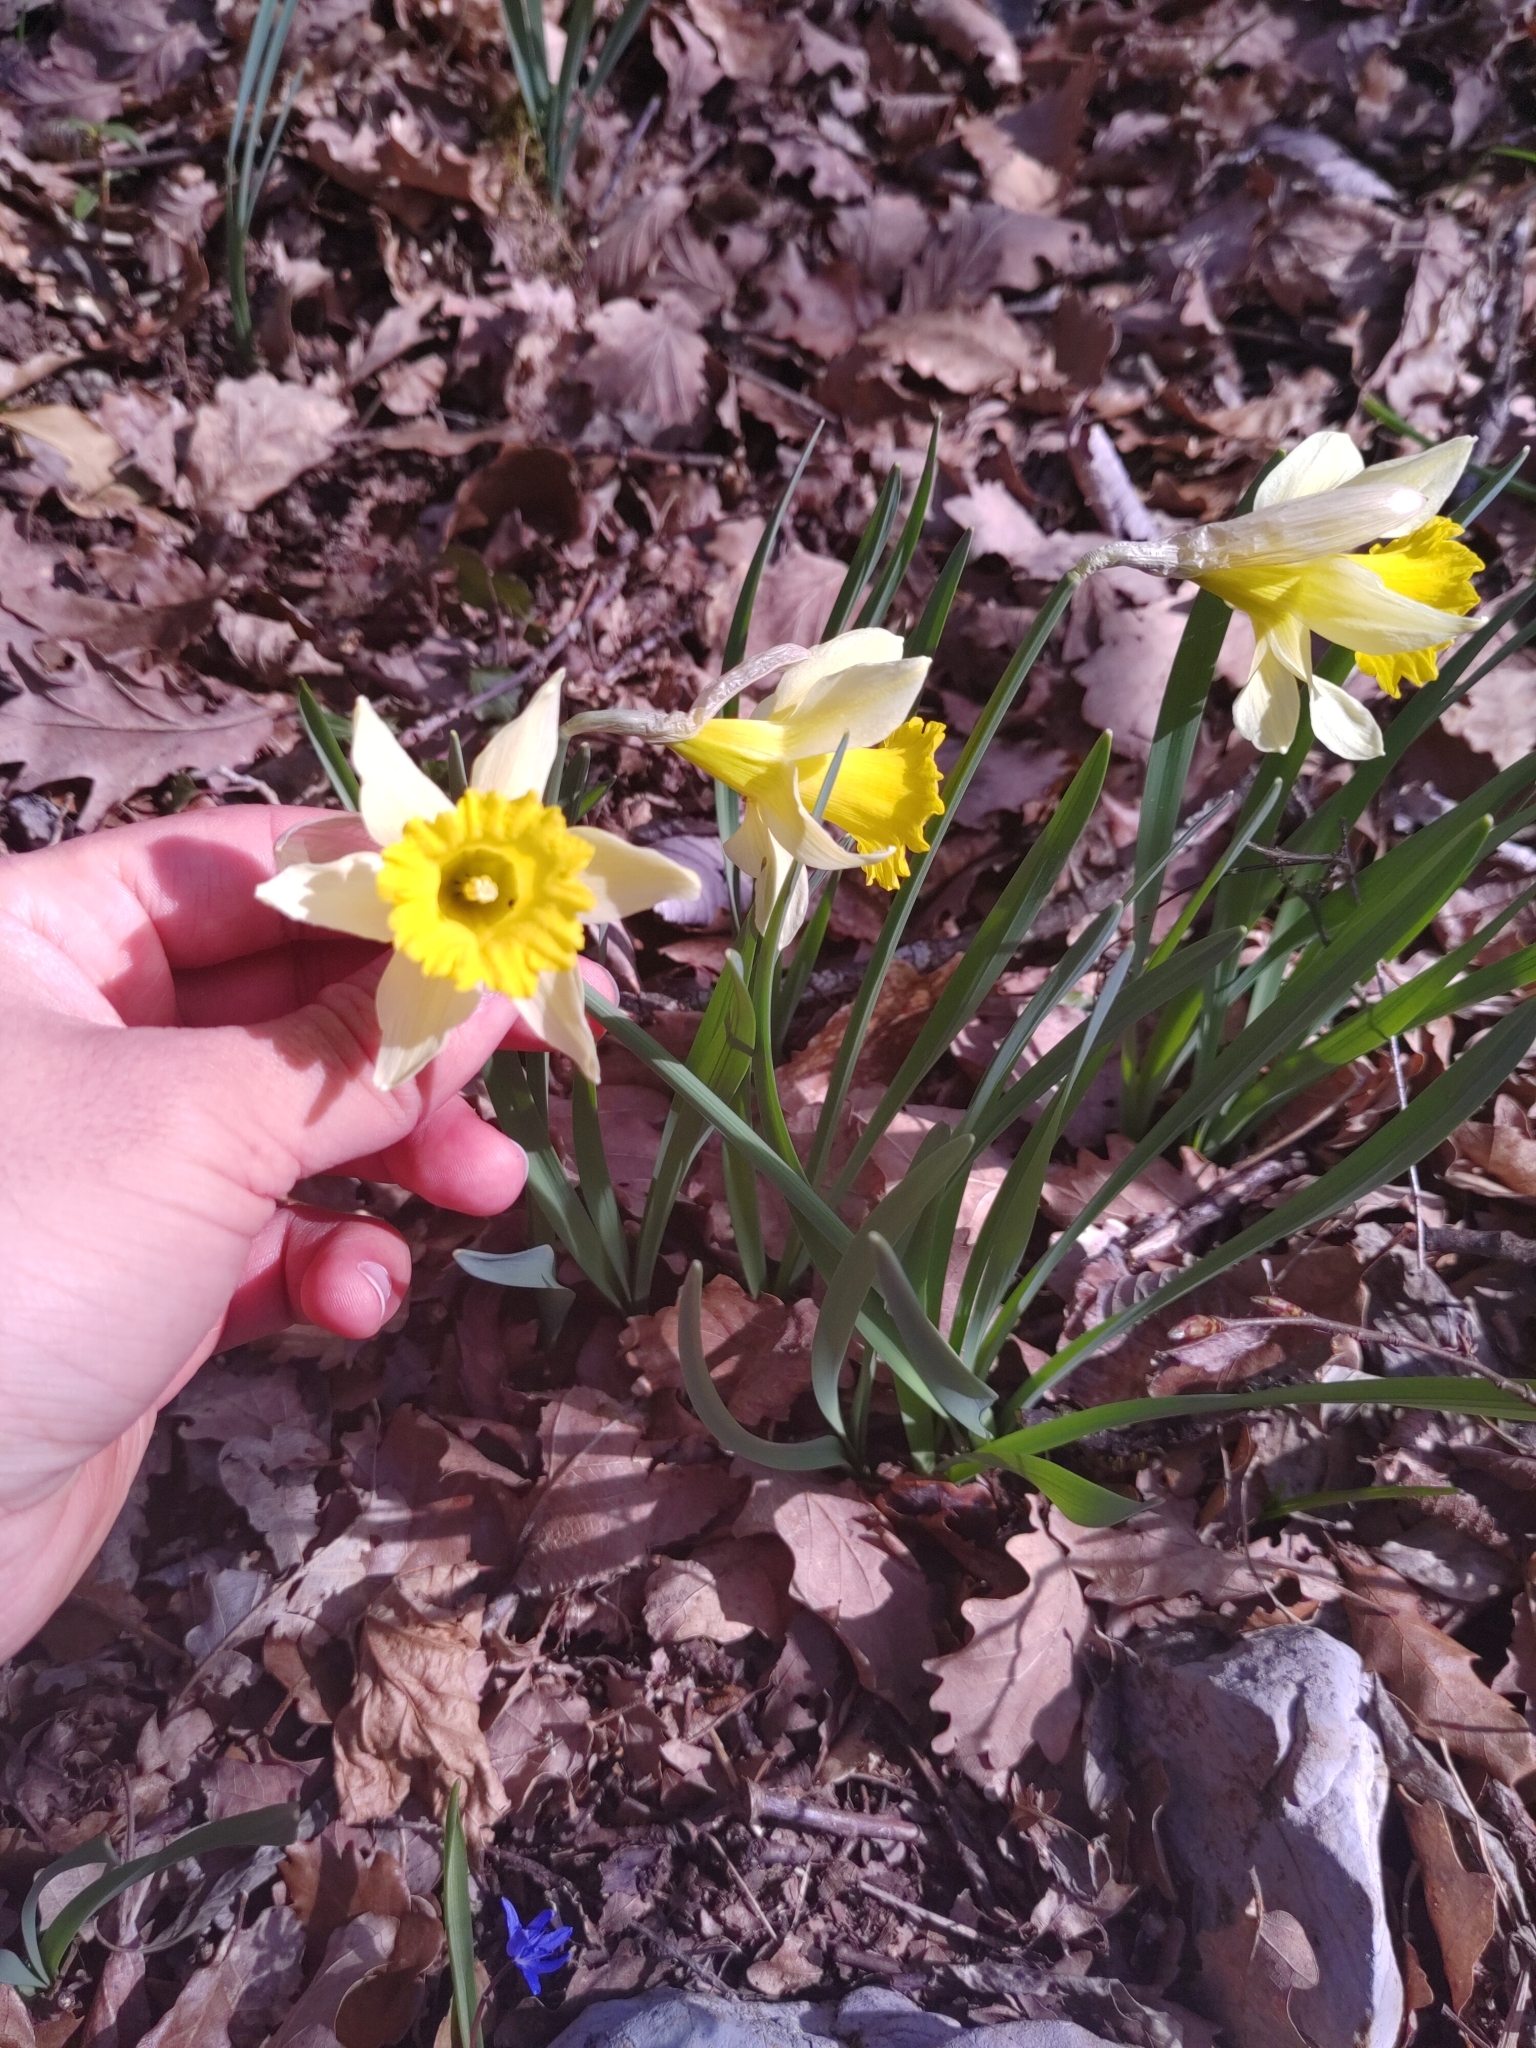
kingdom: Plantae
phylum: Tracheophyta
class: Liliopsida
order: Asparagales
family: Amaryllidaceae
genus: Narcissus
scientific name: Narcissus pseudonarcissus
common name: Daffodil
